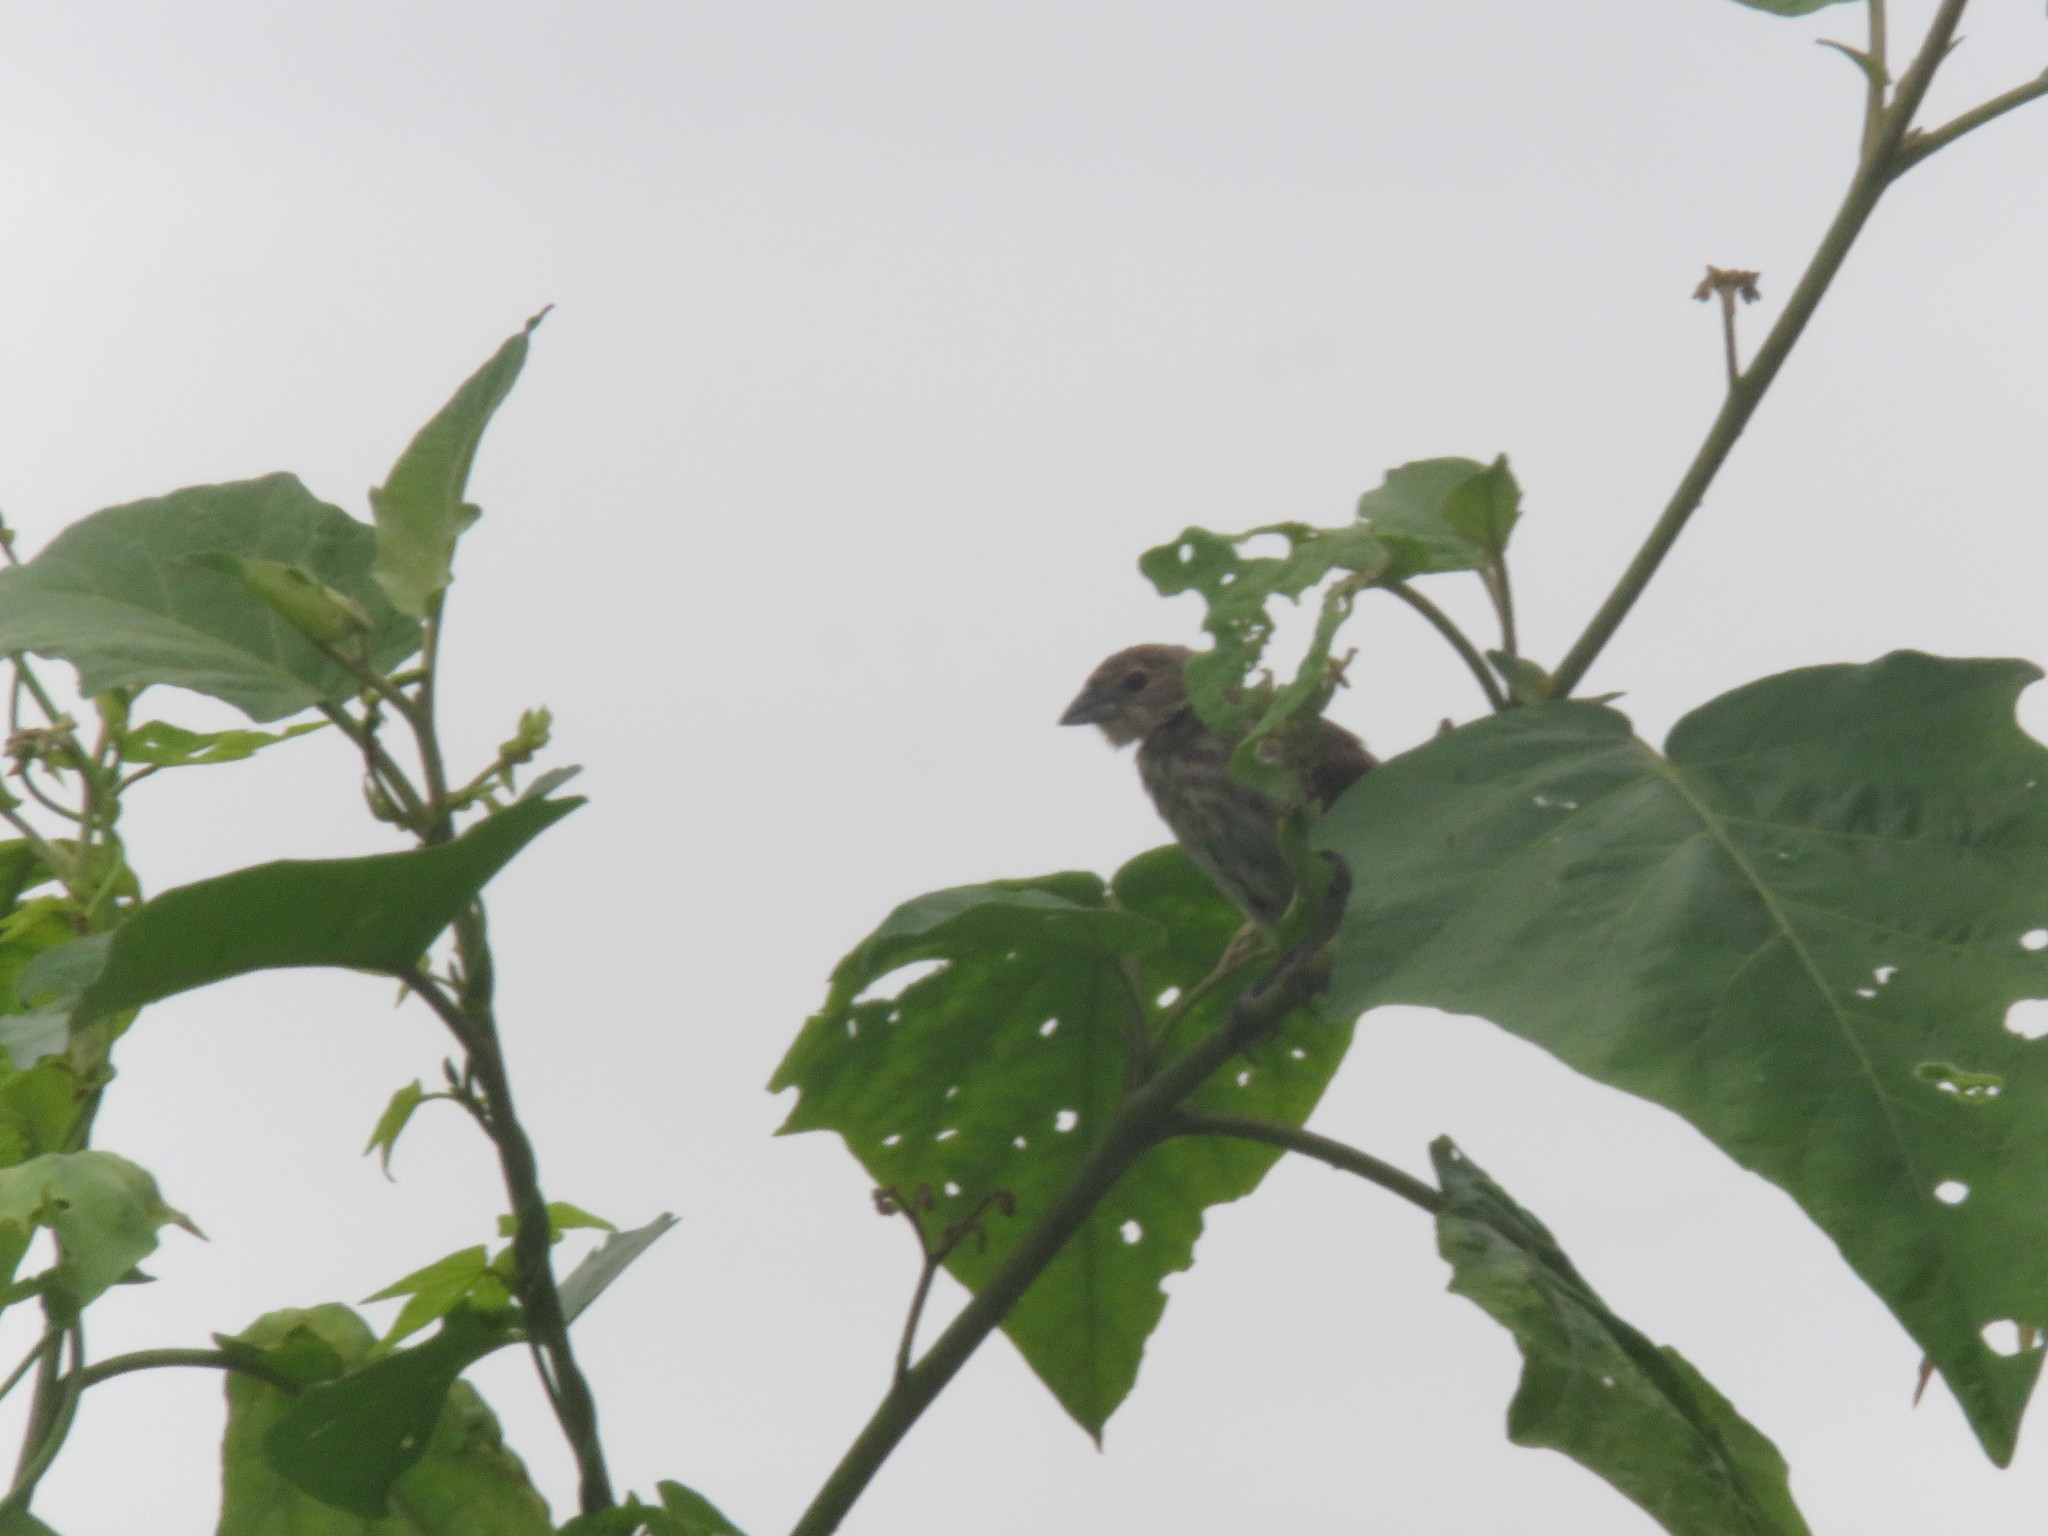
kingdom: Animalia
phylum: Chordata
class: Aves
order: Passeriformes
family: Thraupidae
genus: Volatinia
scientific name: Volatinia jacarina
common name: Blue-black grassquit
